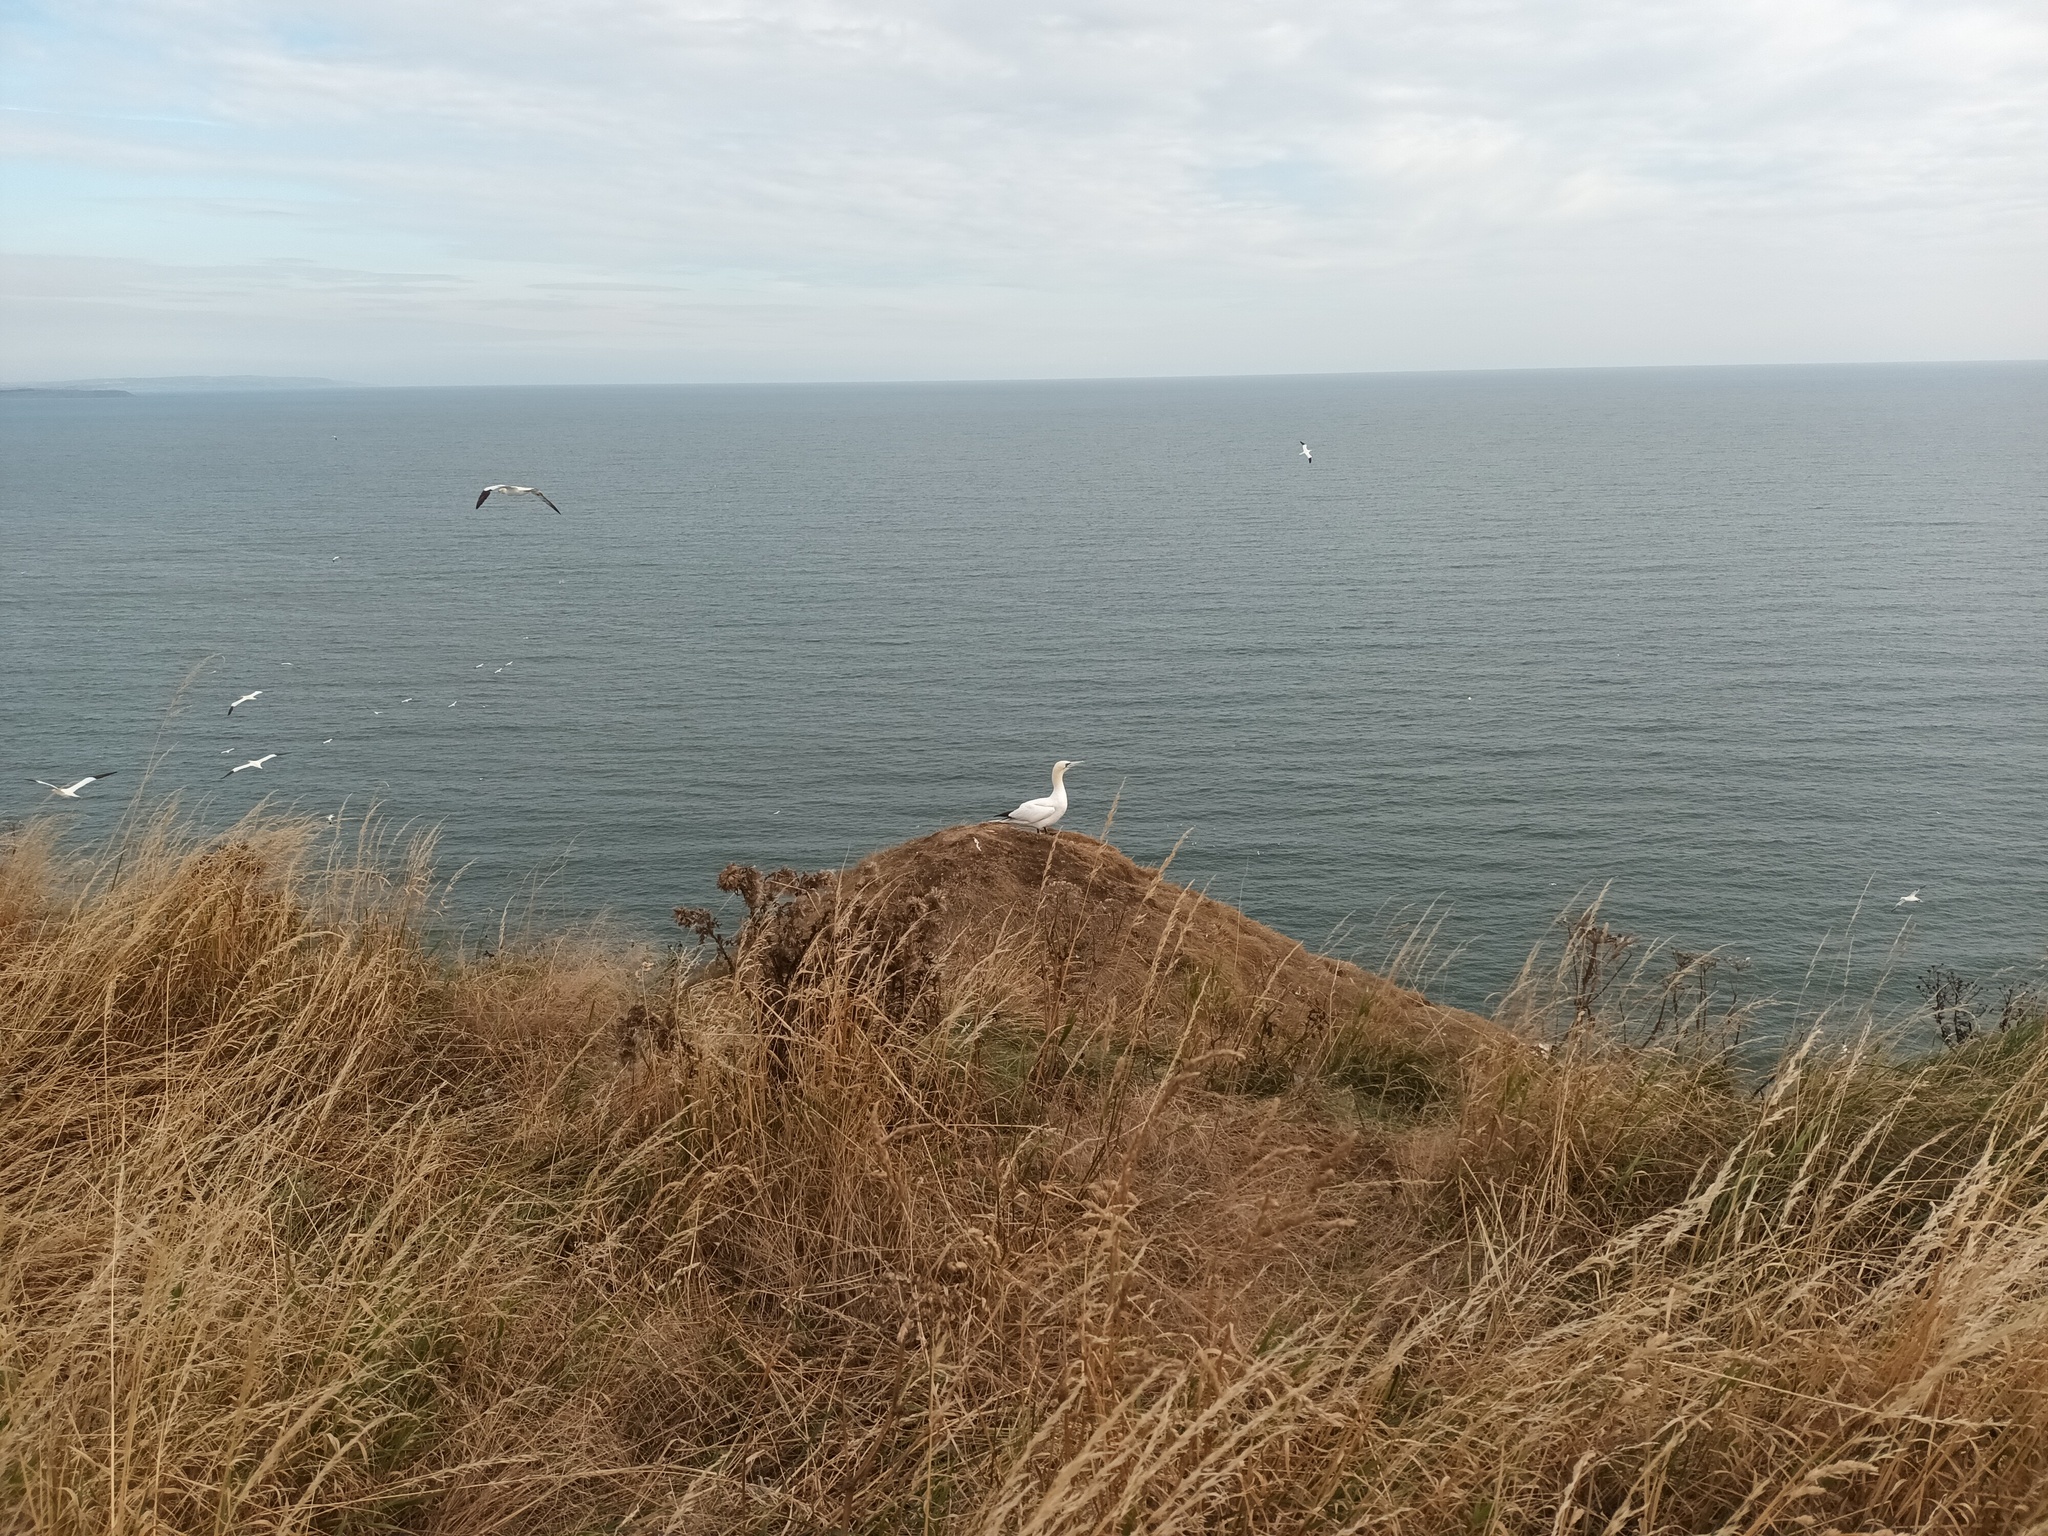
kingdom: Animalia
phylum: Chordata
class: Aves
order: Suliformes
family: Sulidae
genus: Morus
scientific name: Morus bassanus
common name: Northern gannet
